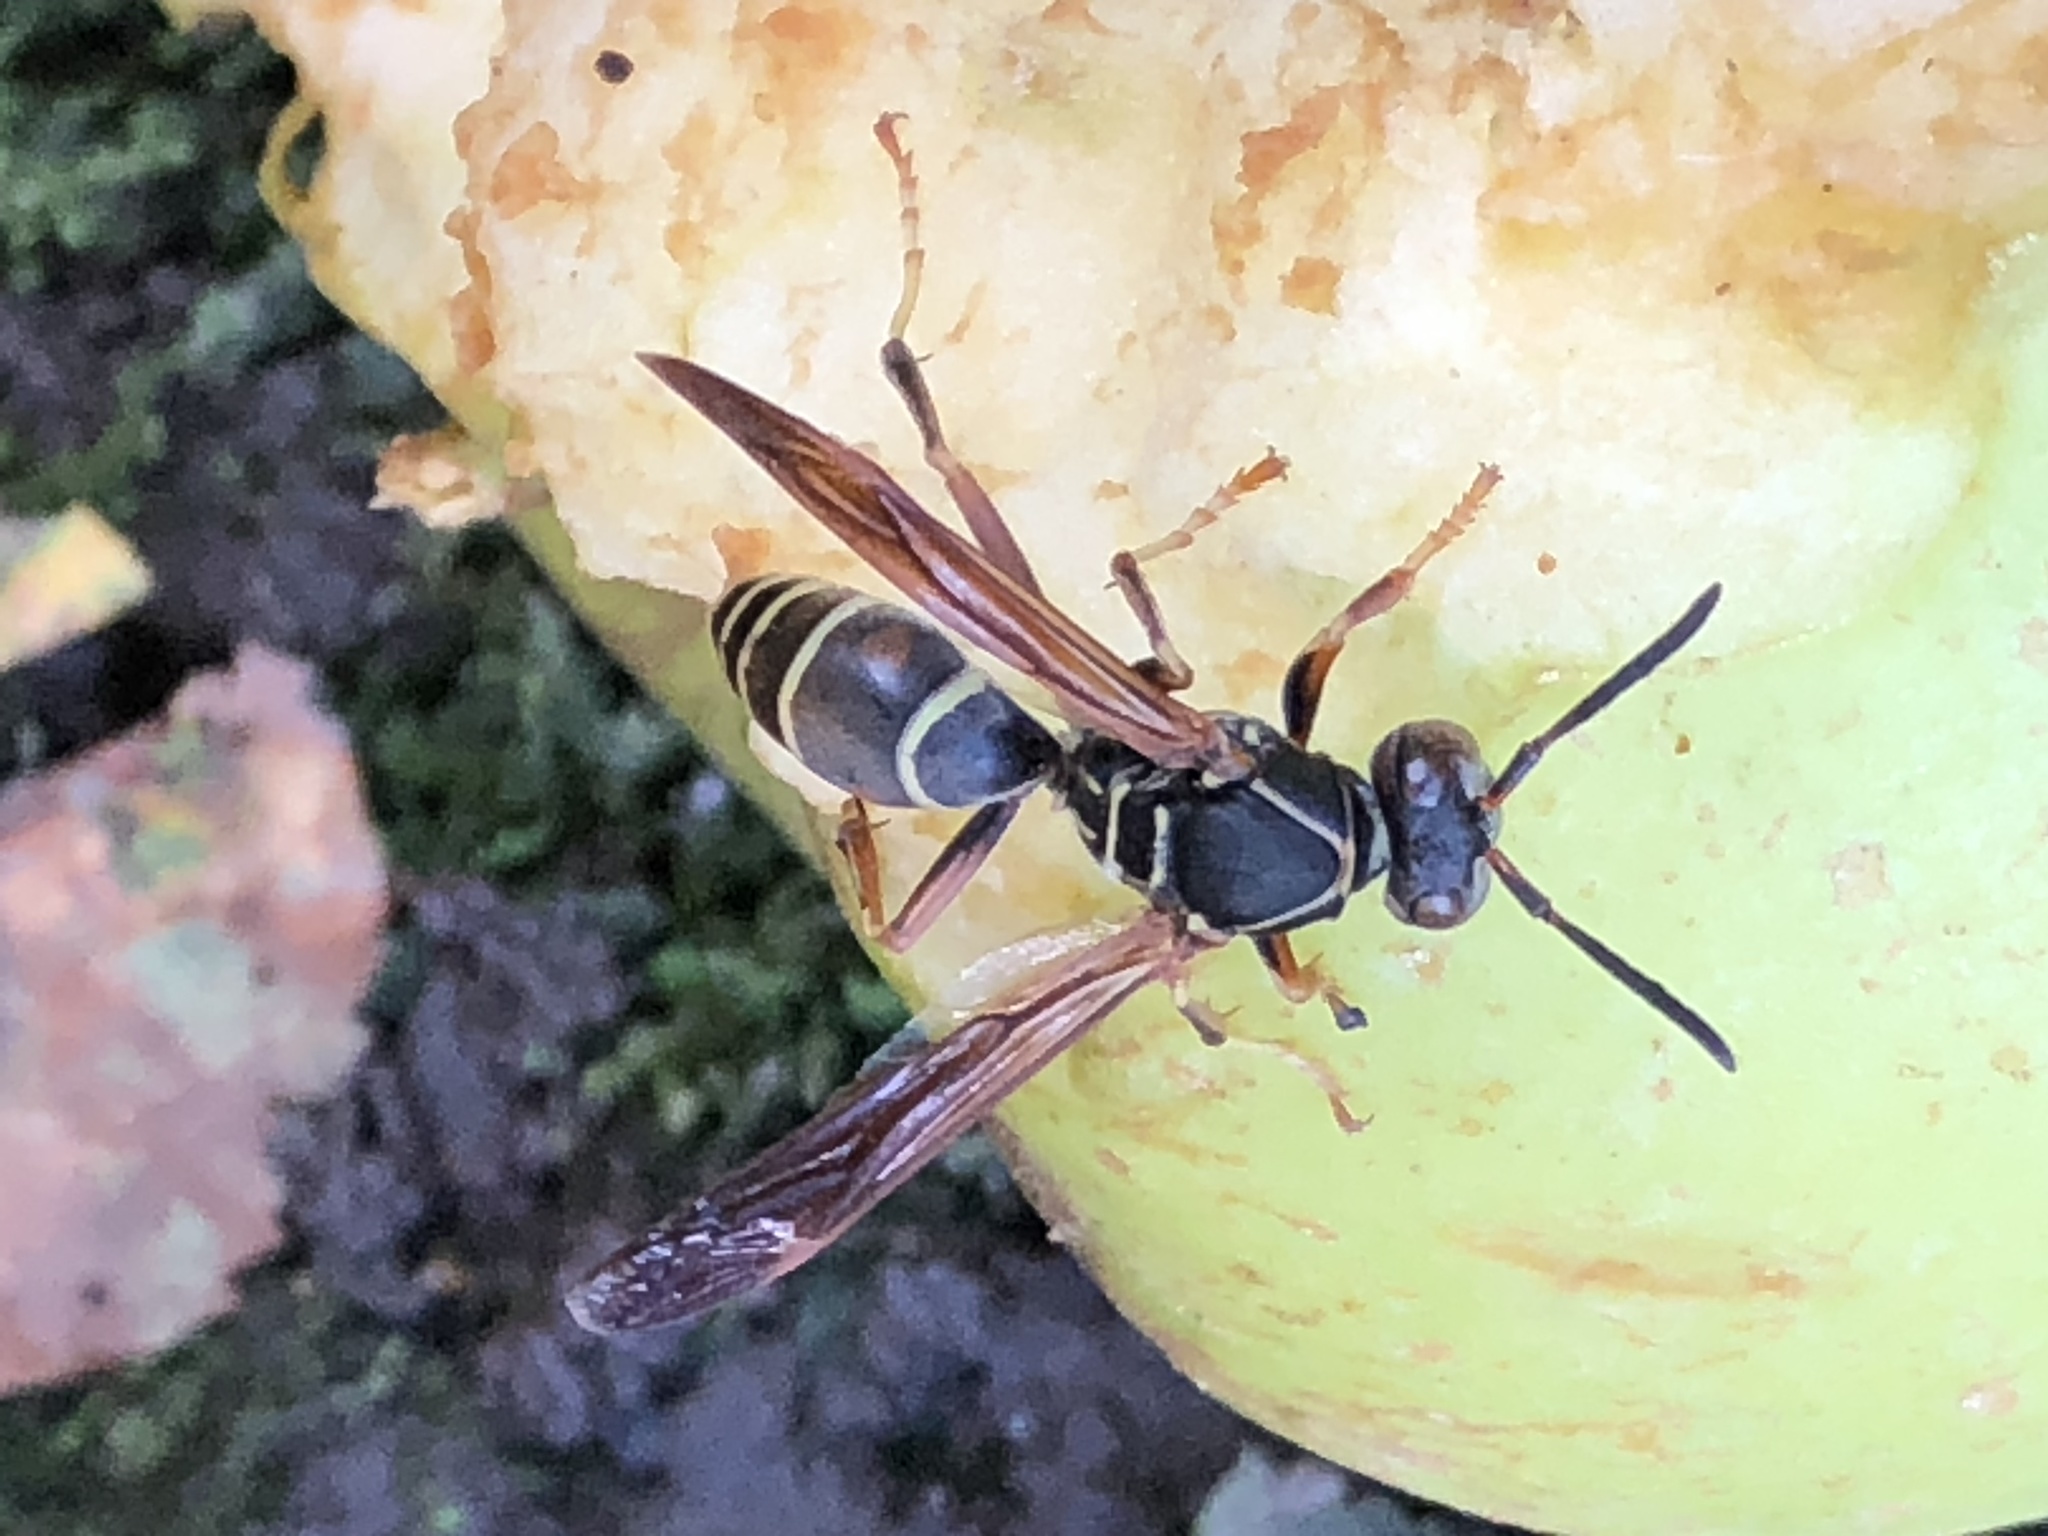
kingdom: Animalia
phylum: Arthropoda
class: Insecta
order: Hymenoptera
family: Eumenidae
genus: Polistes
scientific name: Polistes fuscatus
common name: Dark paper wasp
